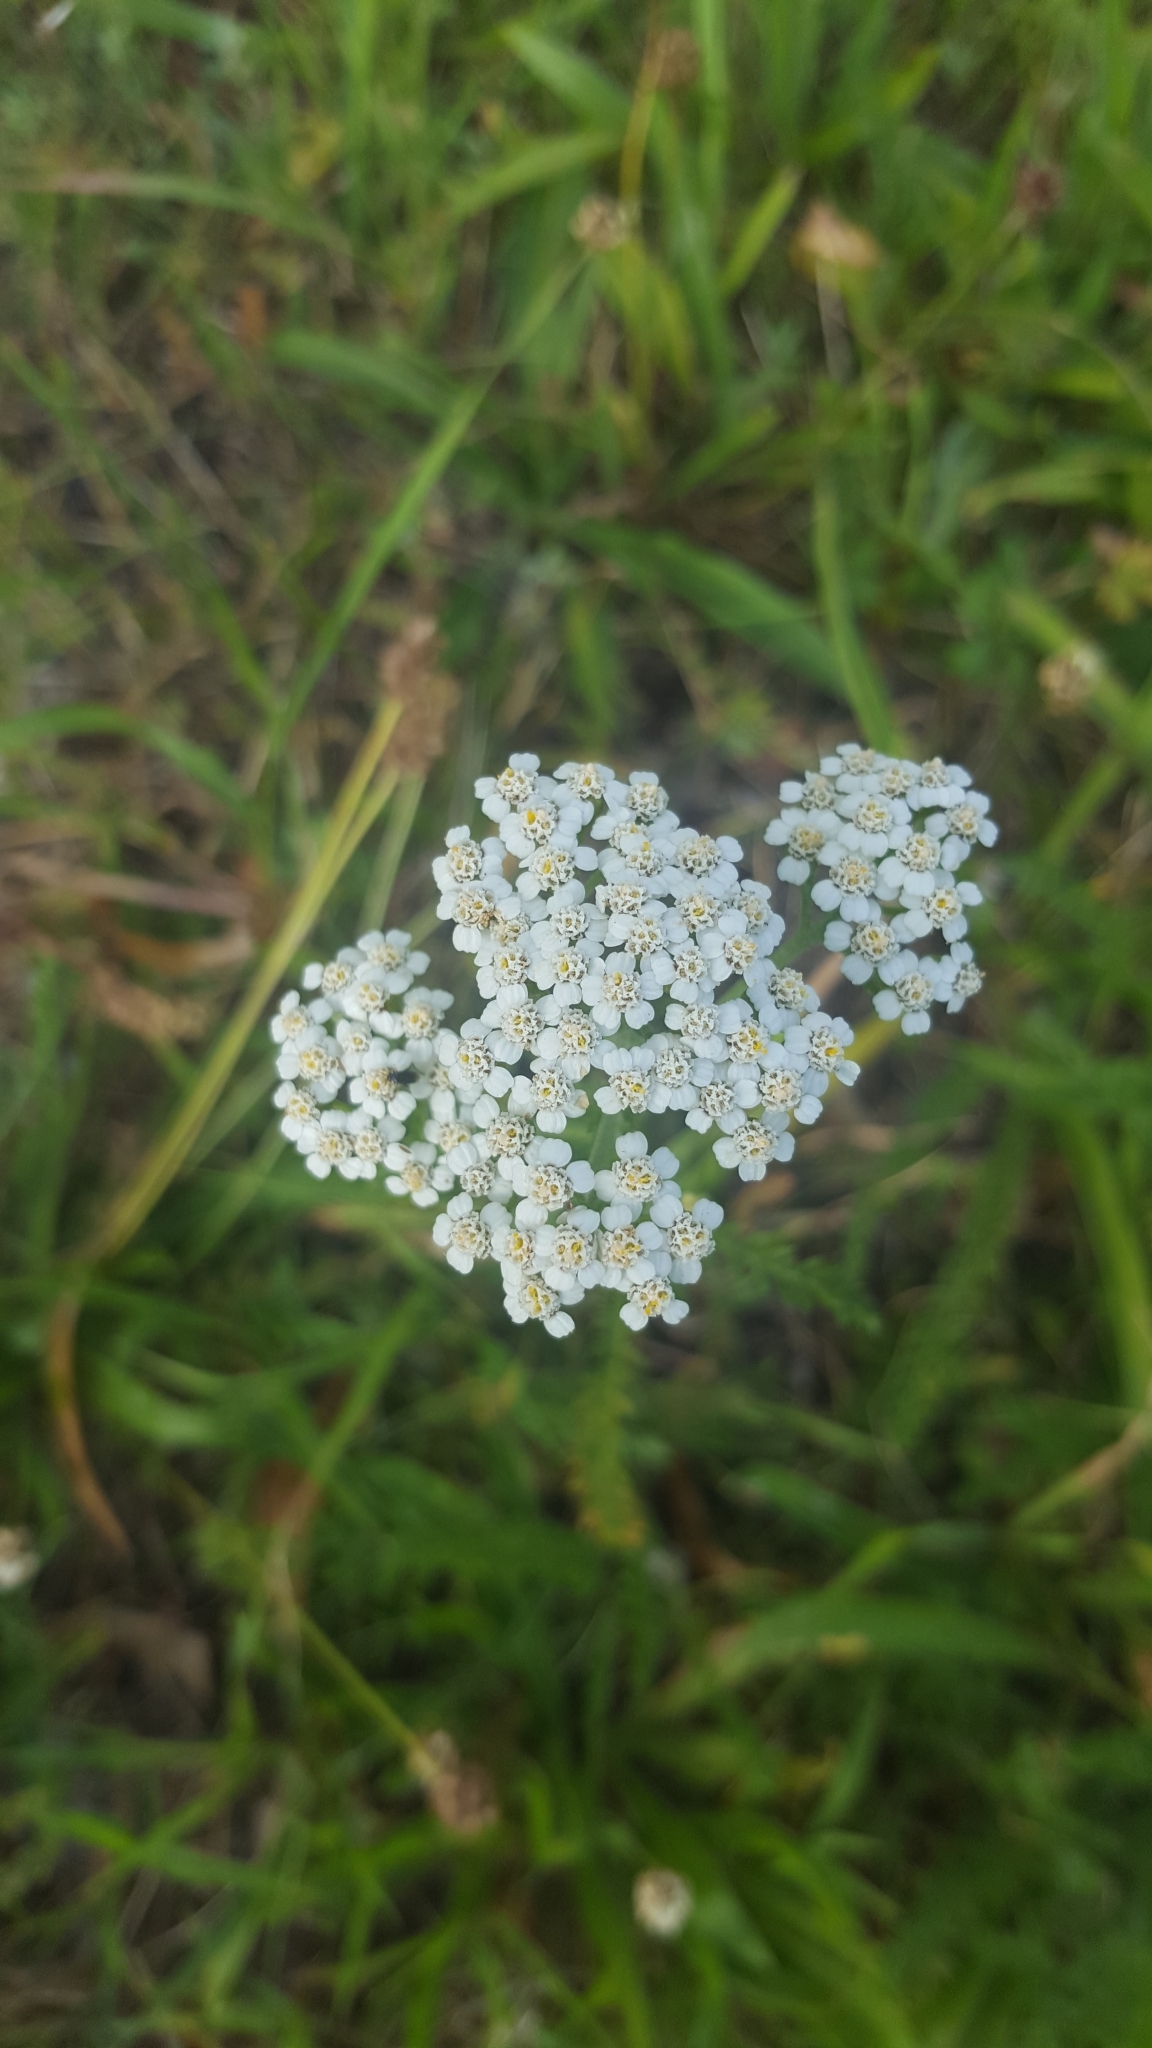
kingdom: Plantae
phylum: Tracheophyta
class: Magnoliopsida
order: Asterales
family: Asteraceae
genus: Achillea
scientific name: Achillea millefolium
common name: Yarrow
